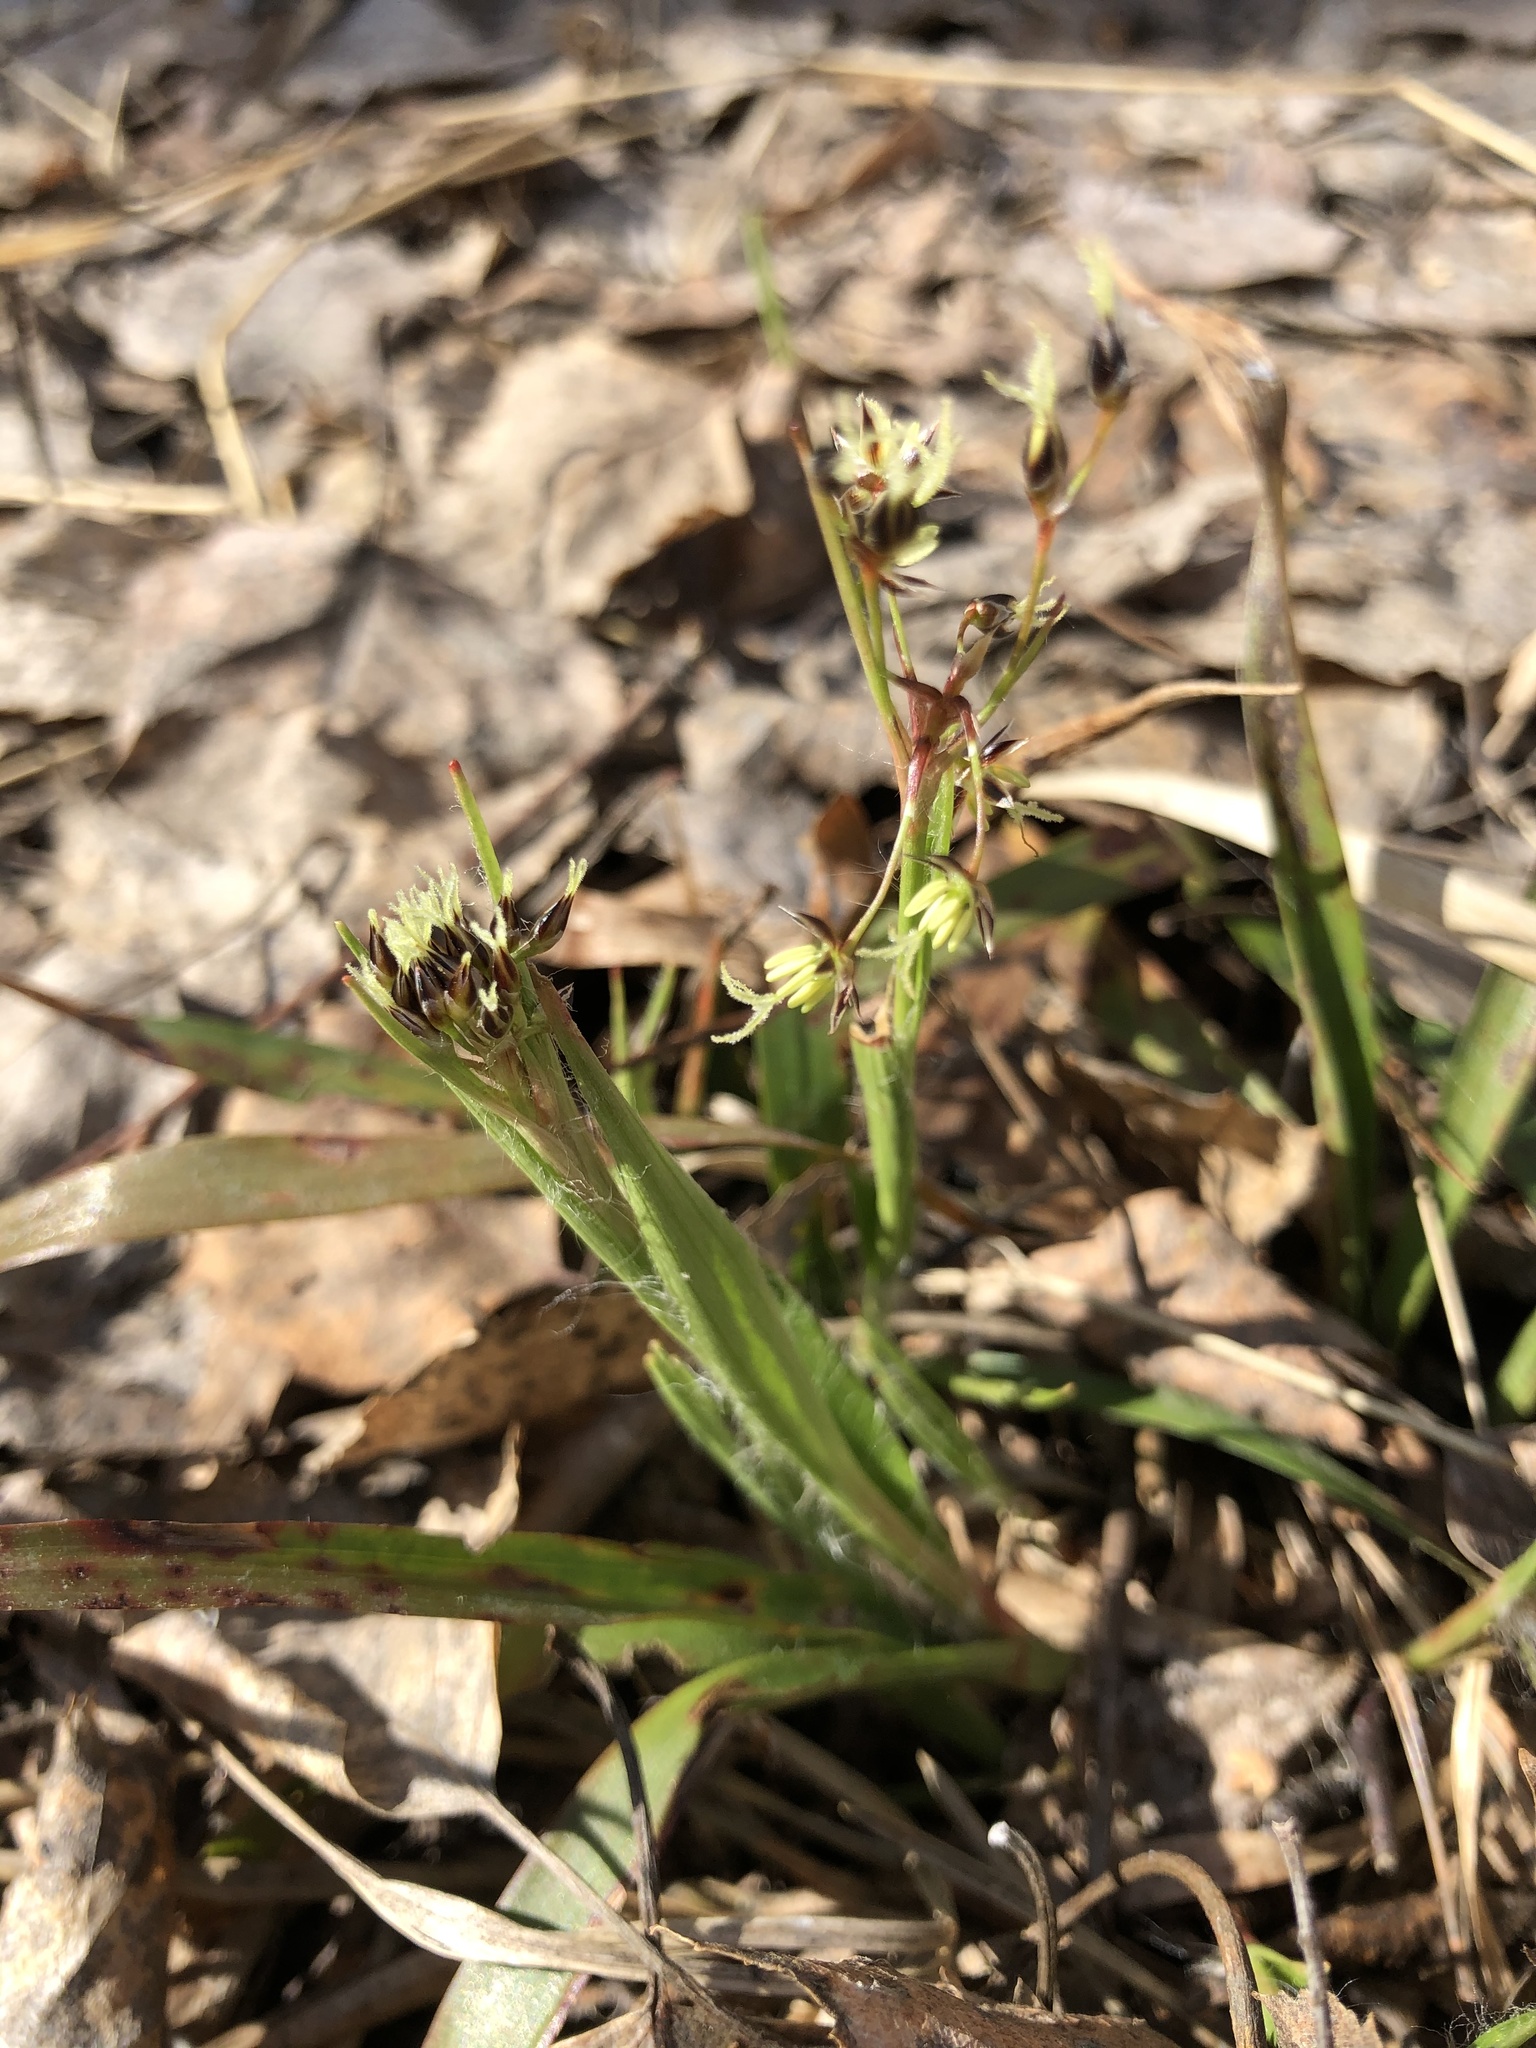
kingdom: Plantae
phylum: Tracheophyta
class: Liliopsida
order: Poales
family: Juncaceae
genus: Luzula
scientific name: Luzula pilosa
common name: Hairy wood-rush
